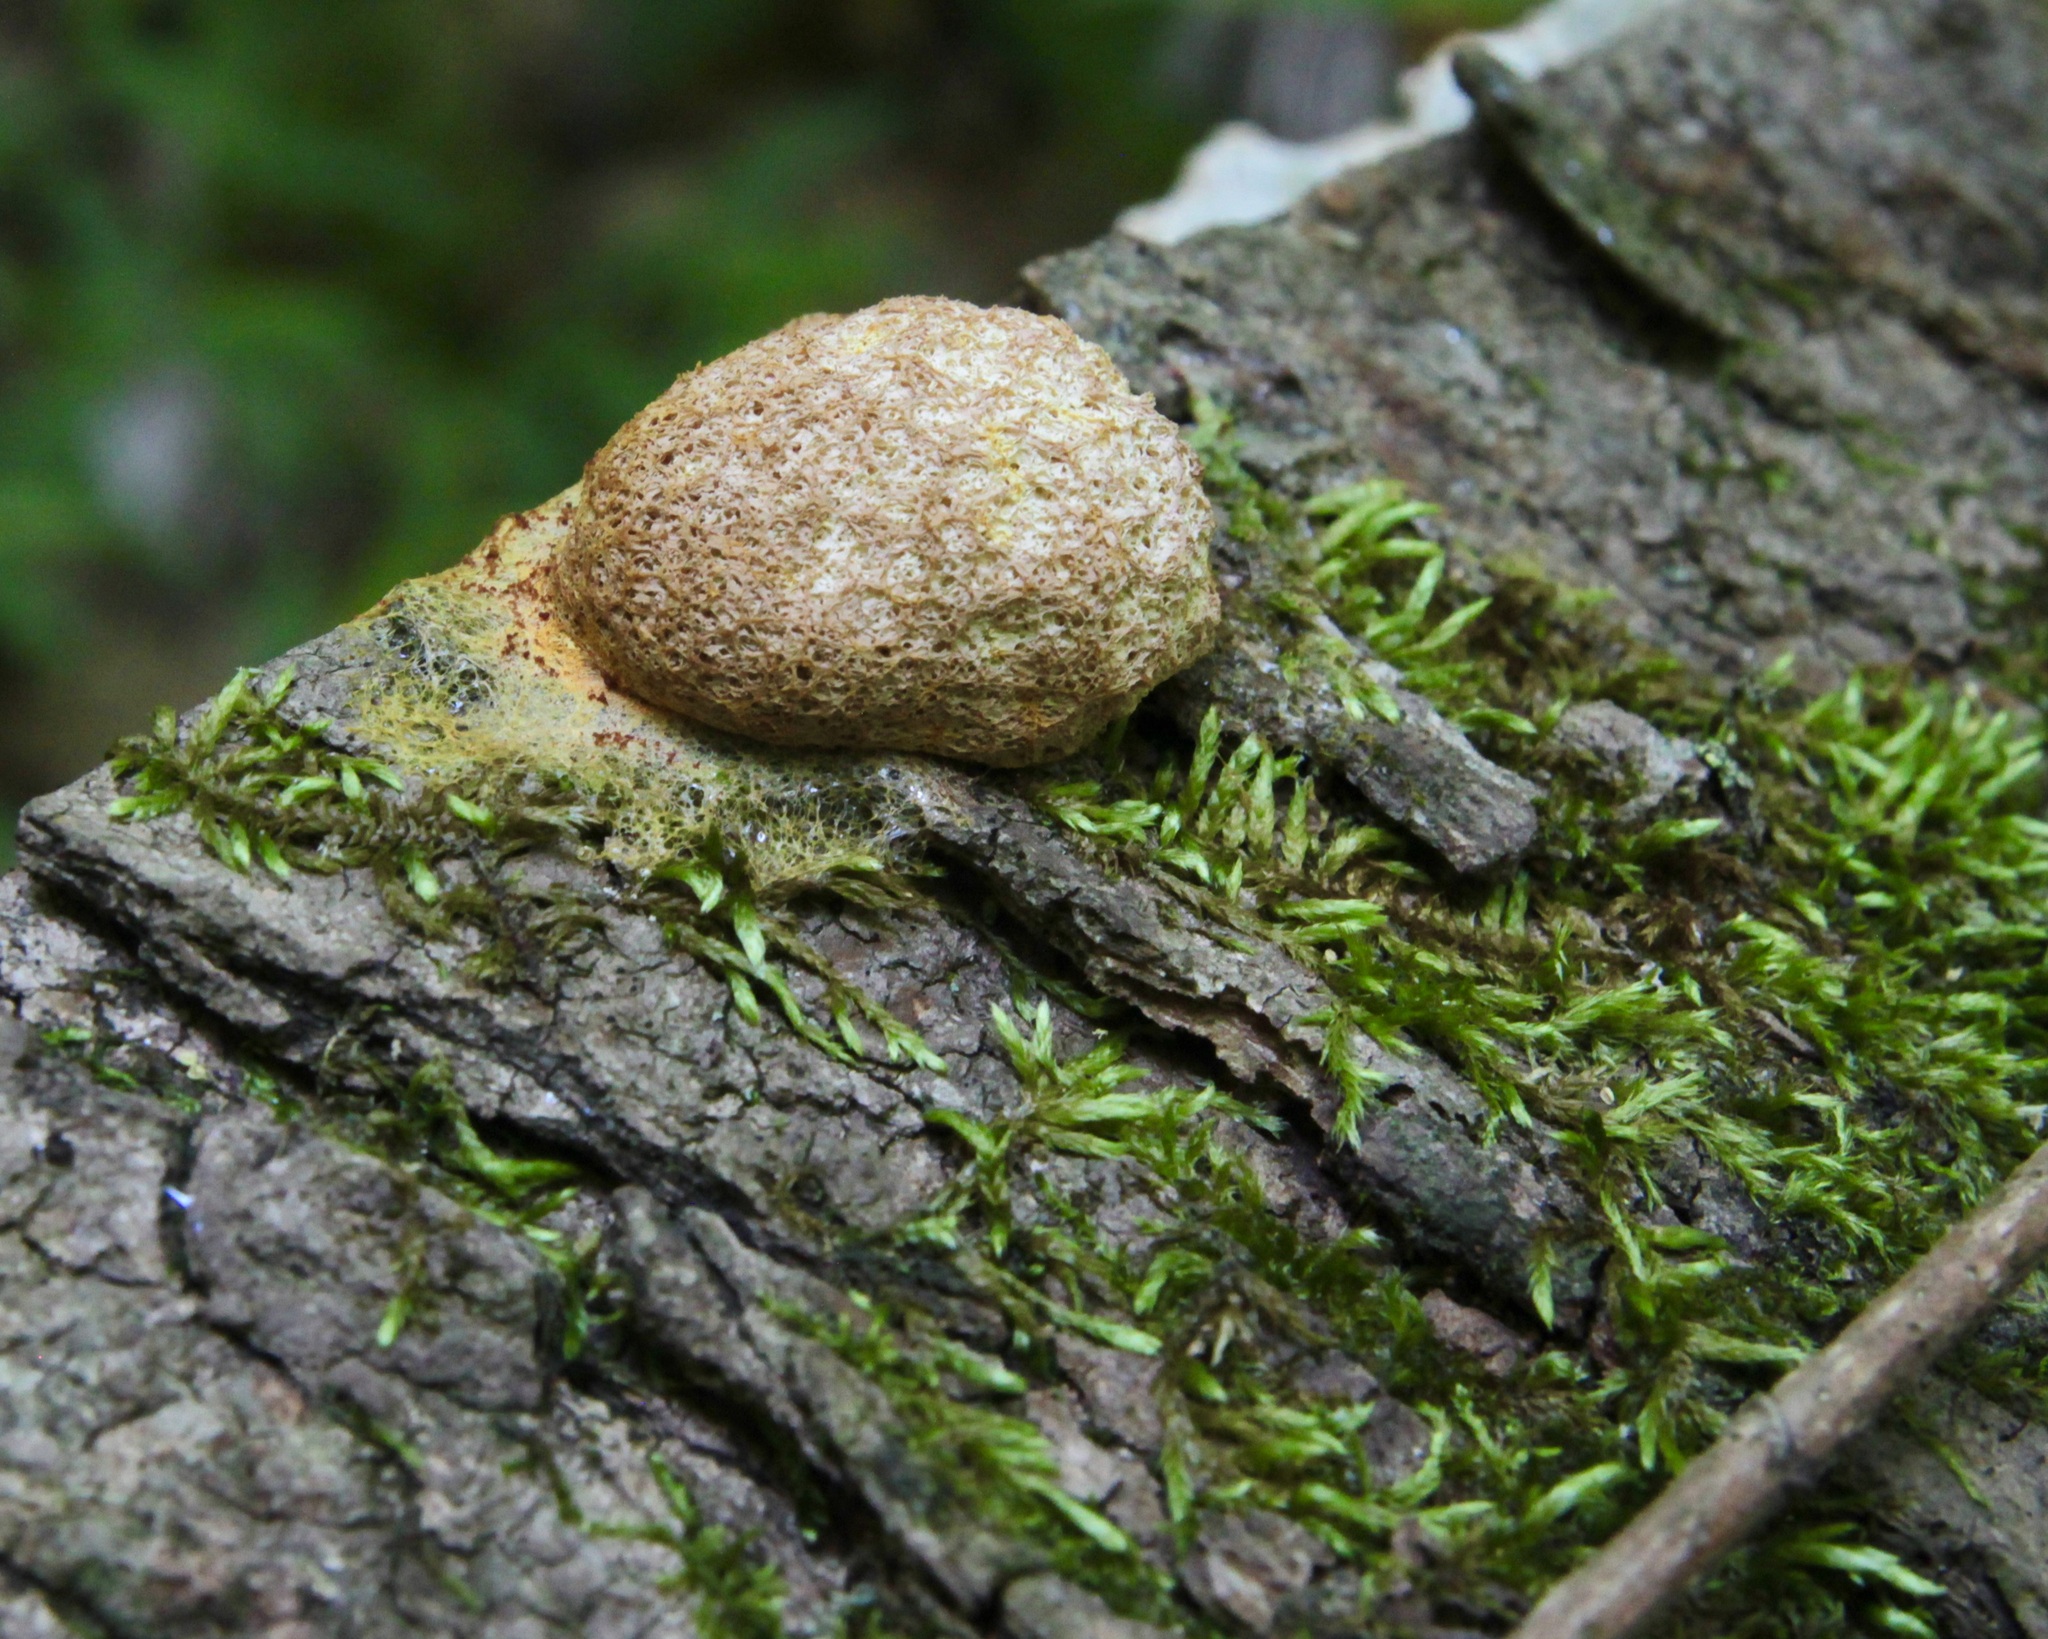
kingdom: Protozoa
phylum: Mycetozoa
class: Myxomycetes
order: Physarales
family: Physaraceae
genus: Fuligo
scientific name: Fuligo septica
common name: Dog vomit slime mold
